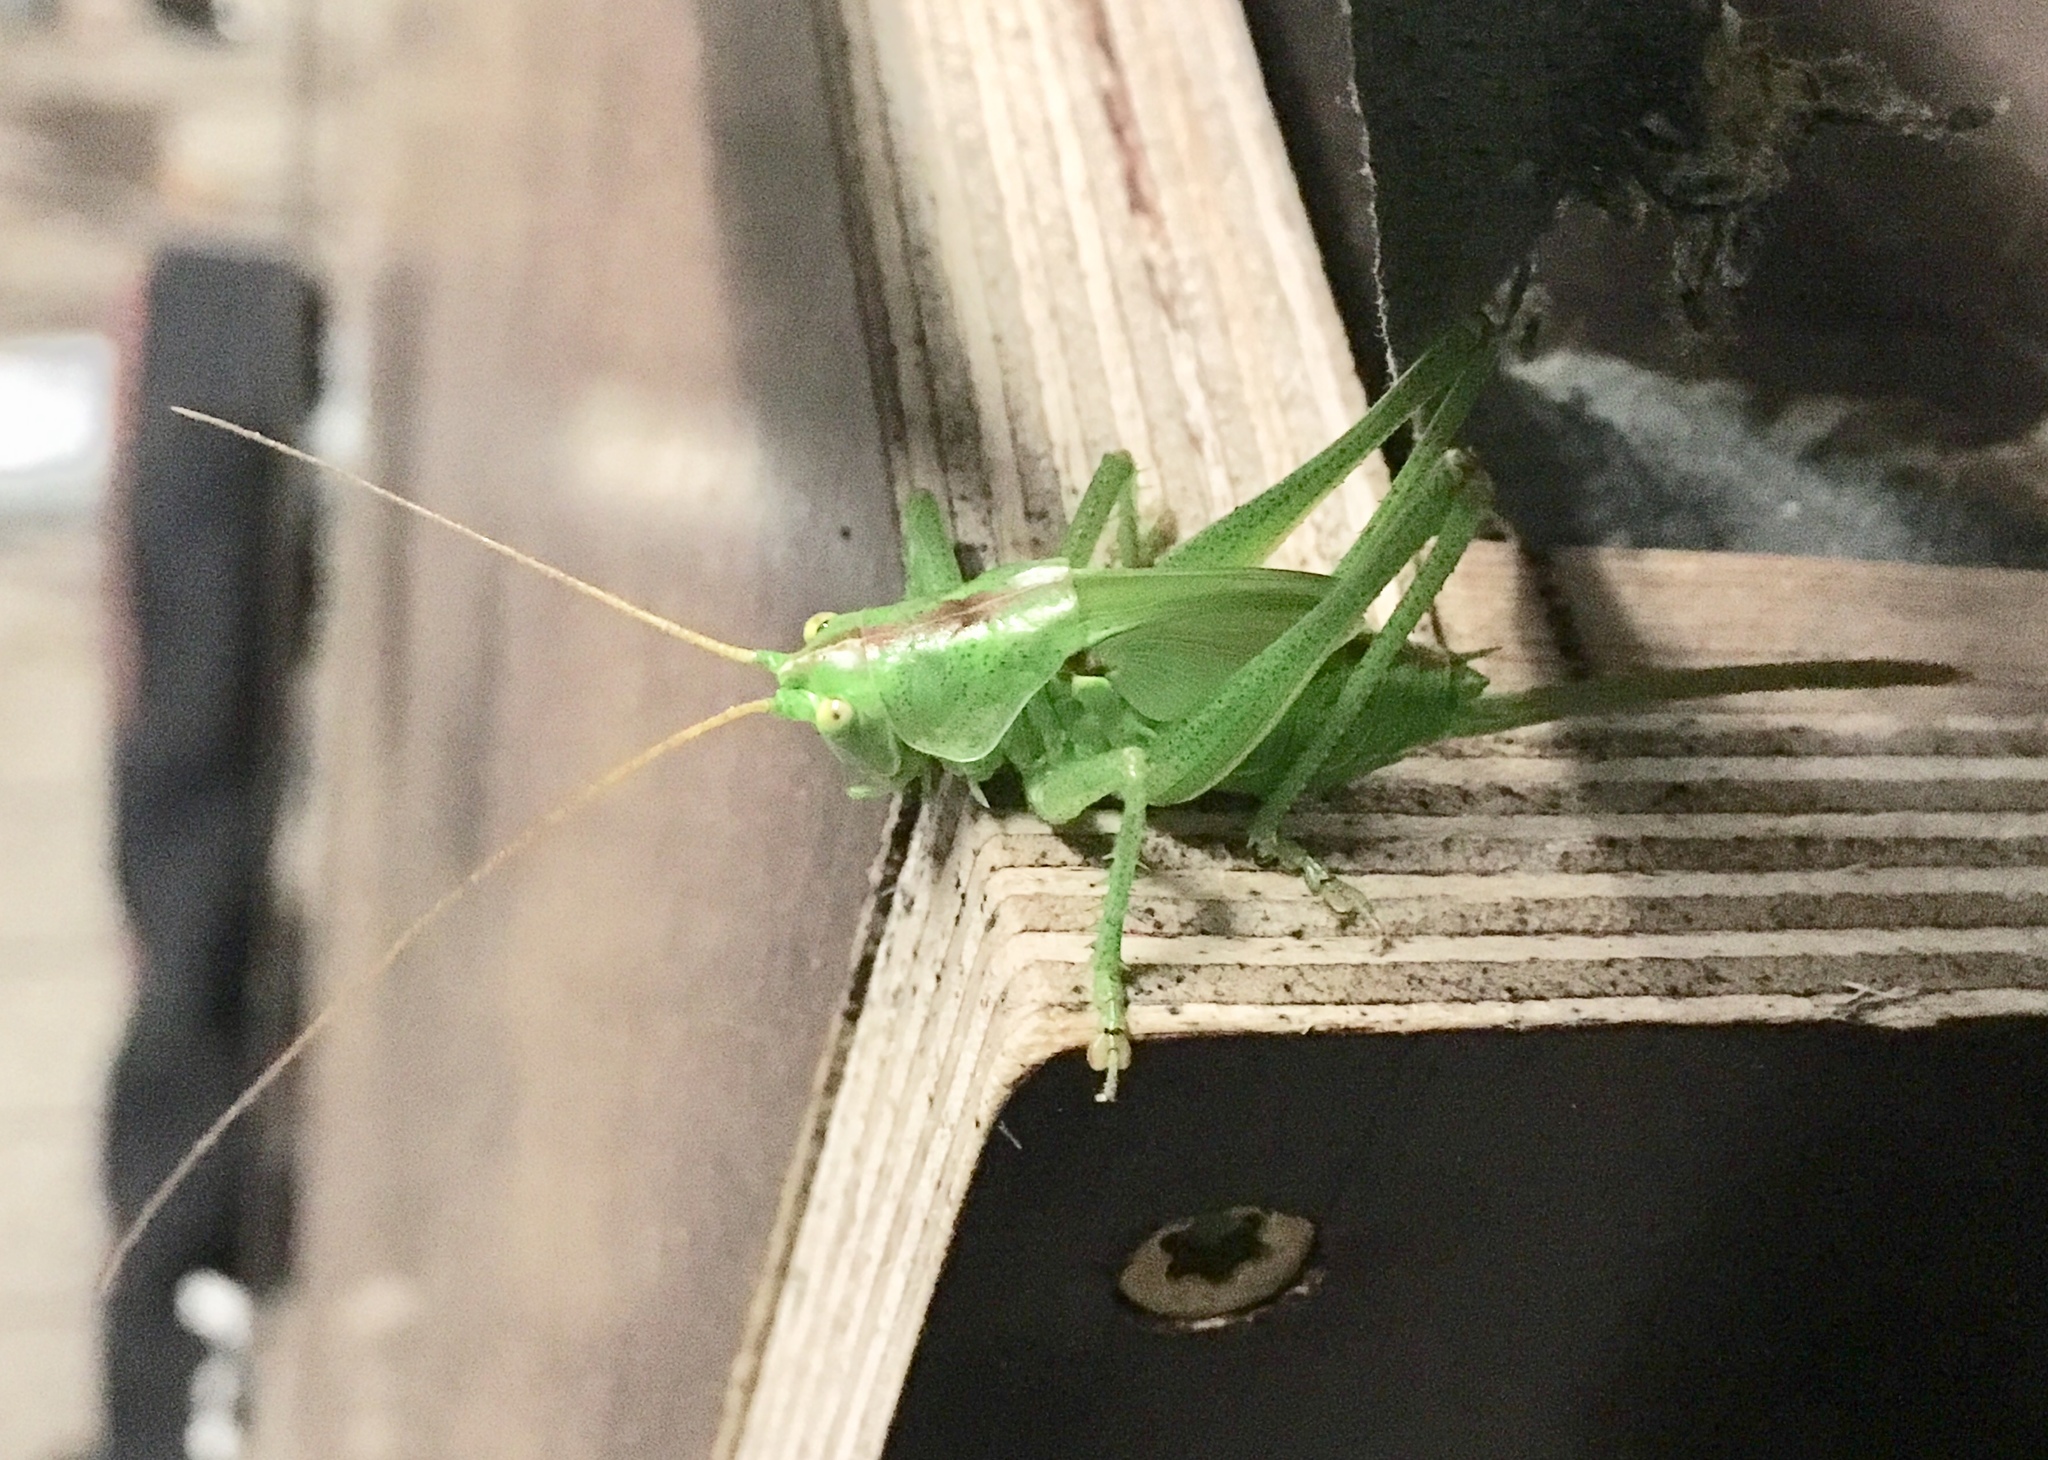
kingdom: Animalia
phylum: Arthropoda
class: Insecta
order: Orthoptera
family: Tettigoniidae
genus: Tettigonia
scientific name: Tettigonia viridissima
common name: Great green bush-cricket
